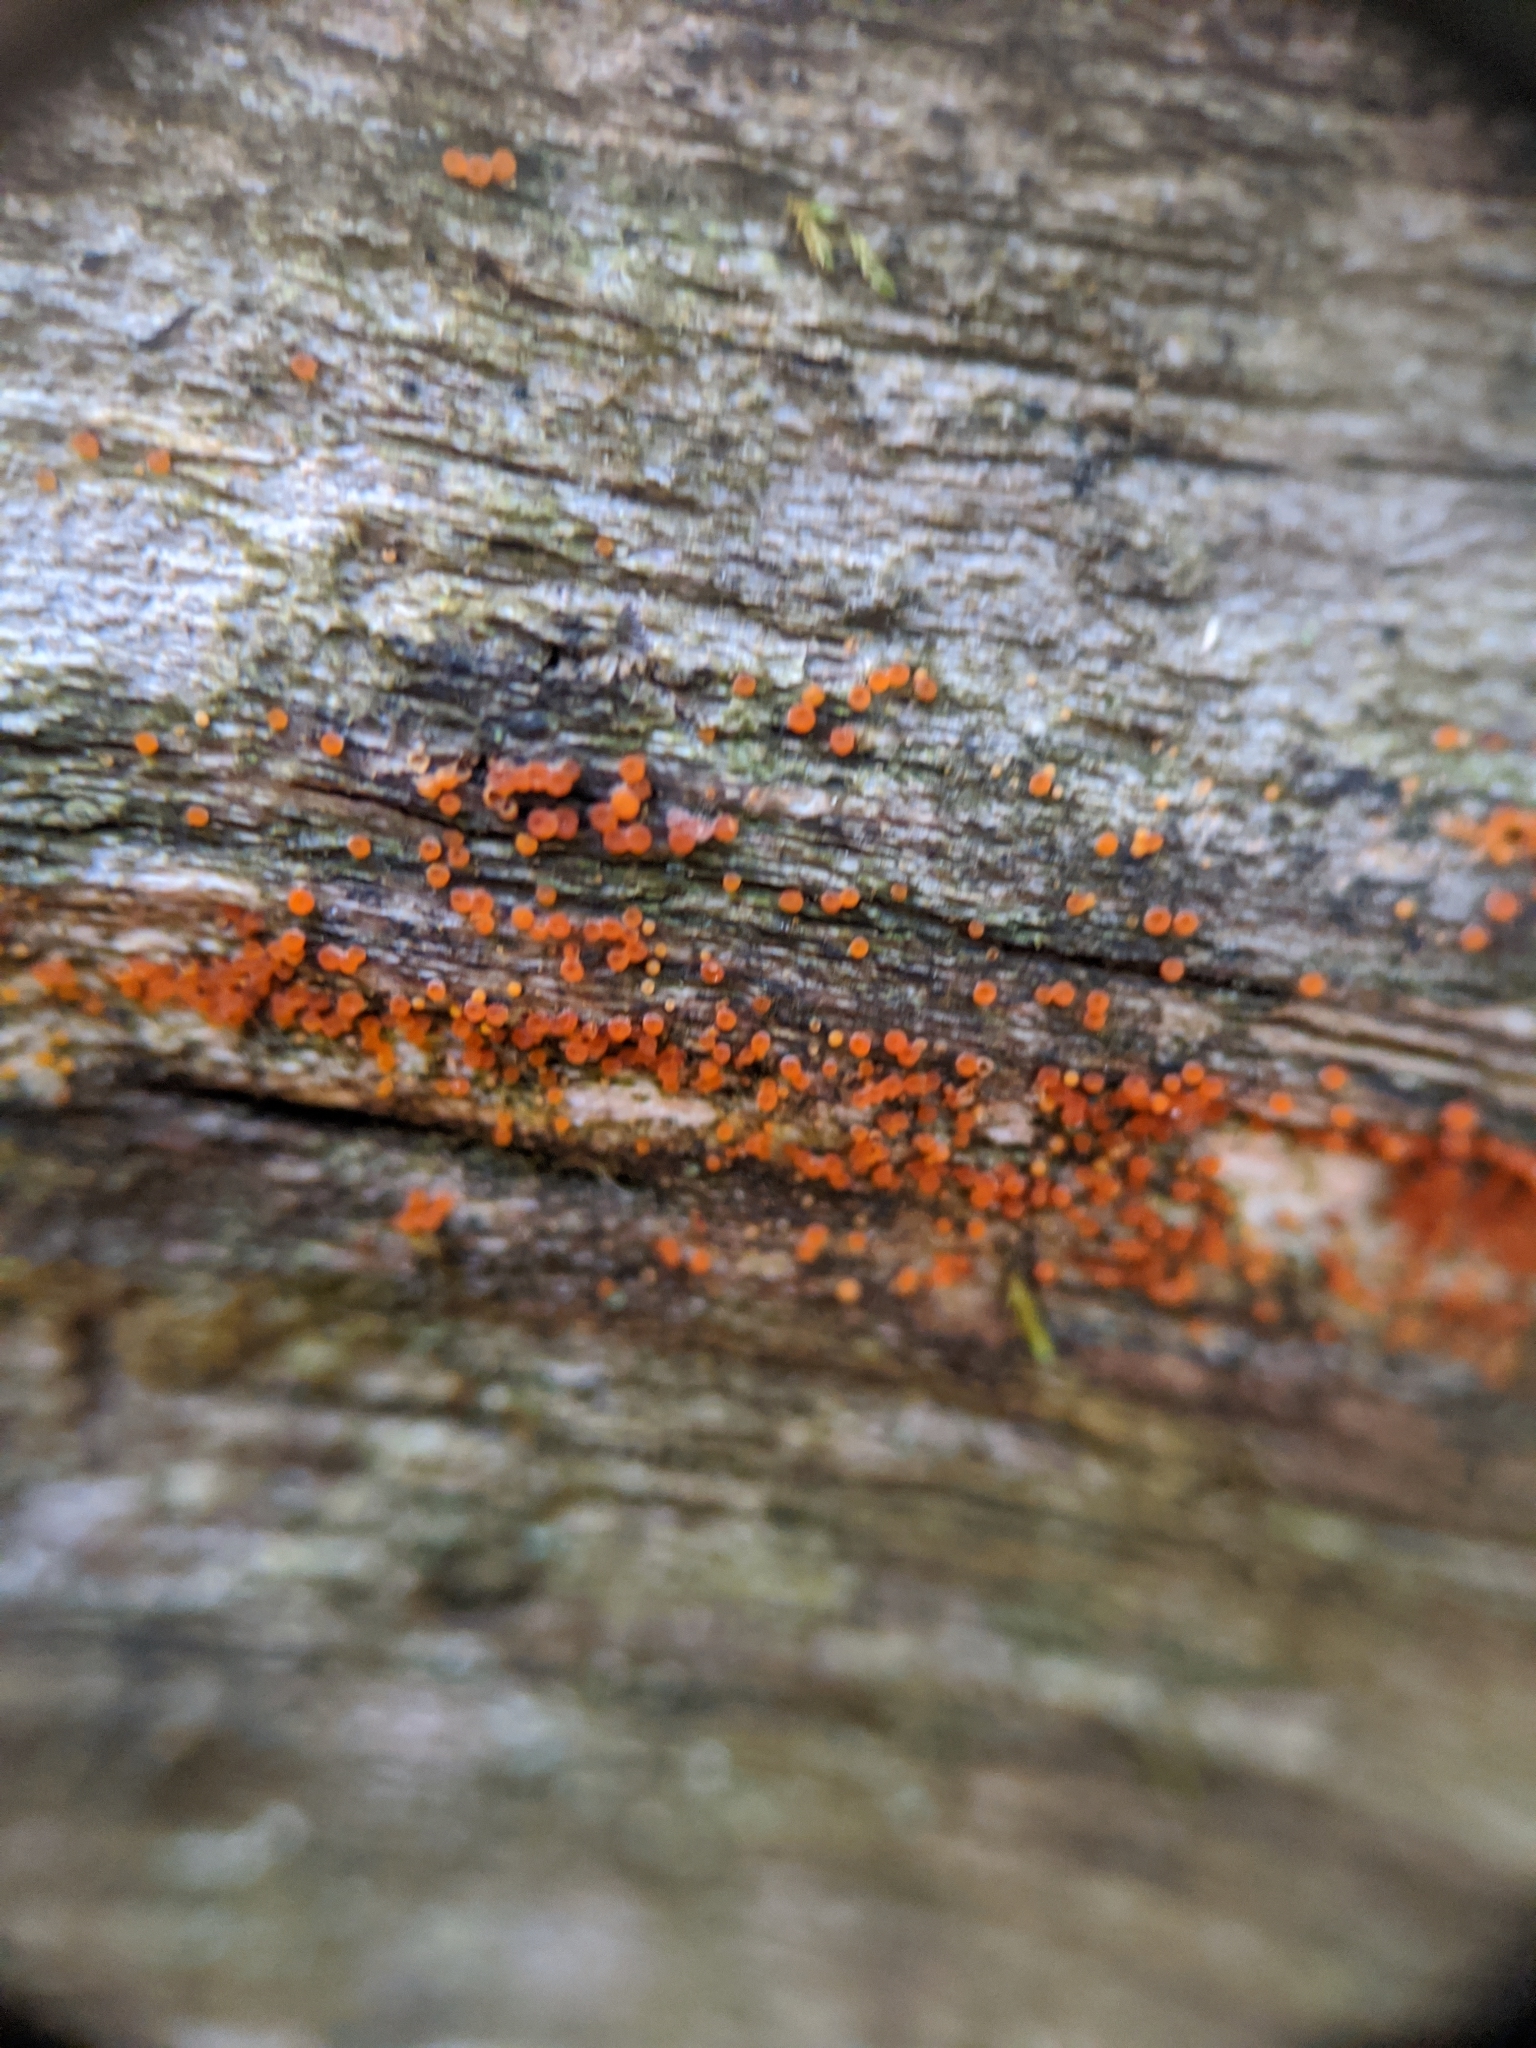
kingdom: Fungi
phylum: Ascomycota
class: Orbiliomycetes
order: Orbiliales
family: Orbiliaceae
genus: Orbilia
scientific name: Orbilia
